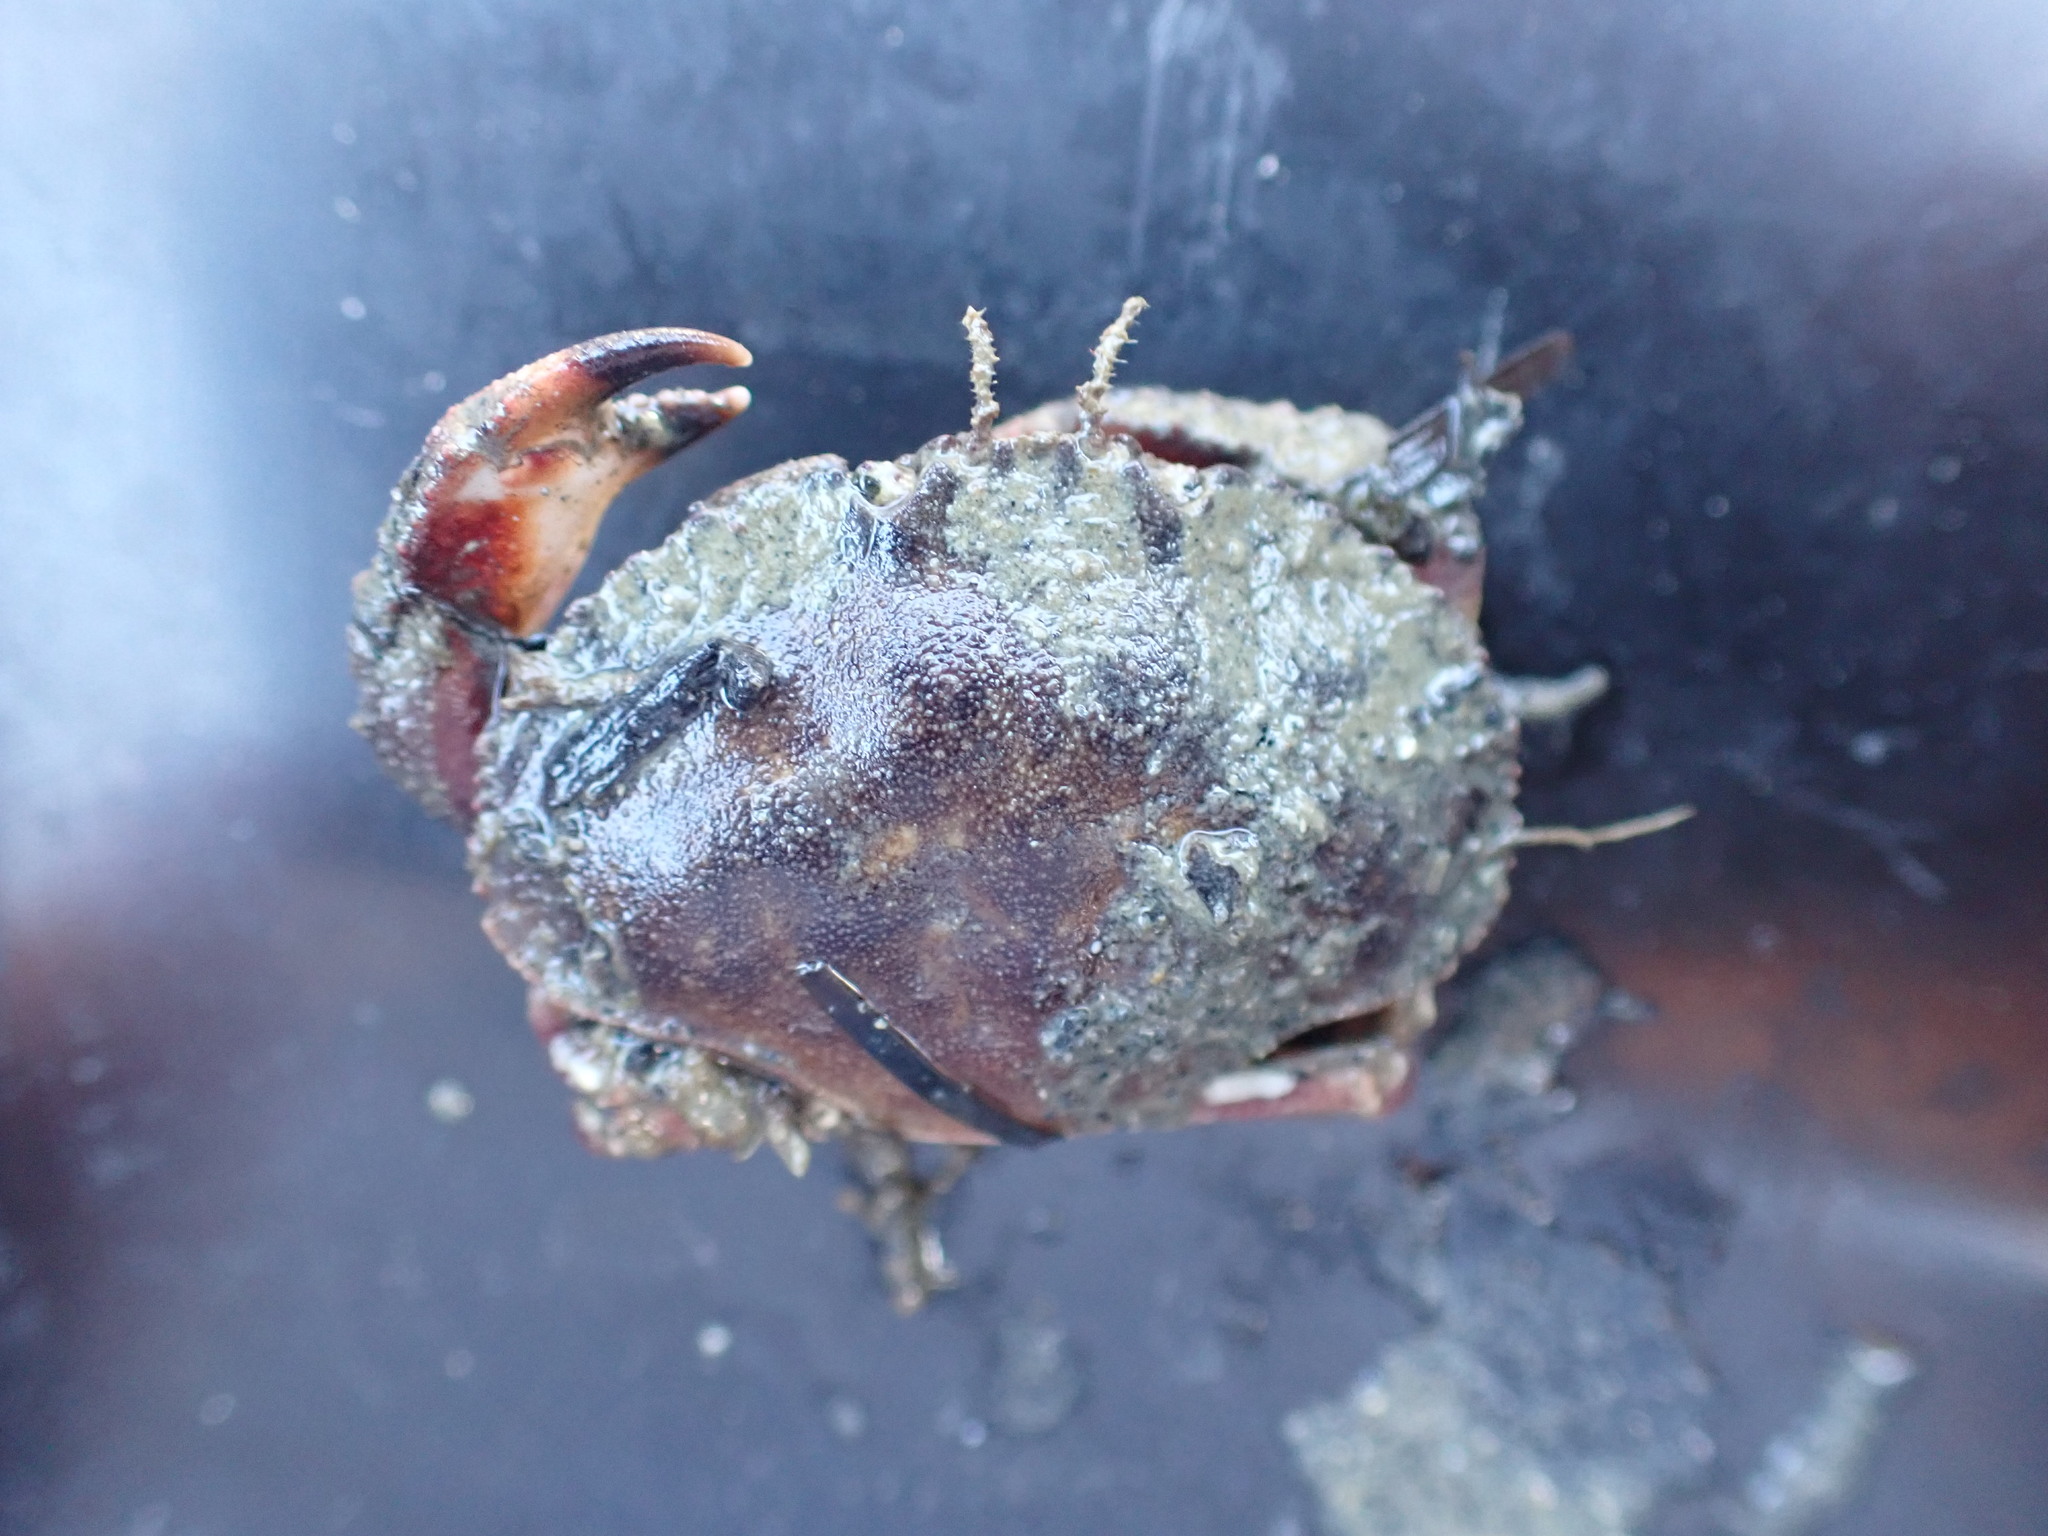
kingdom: Animalia
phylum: Arthropoda
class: Malacostraca
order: Decapoda
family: Cancridae
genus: Metacarcinus
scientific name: Metacarcinus novaezelandiae
